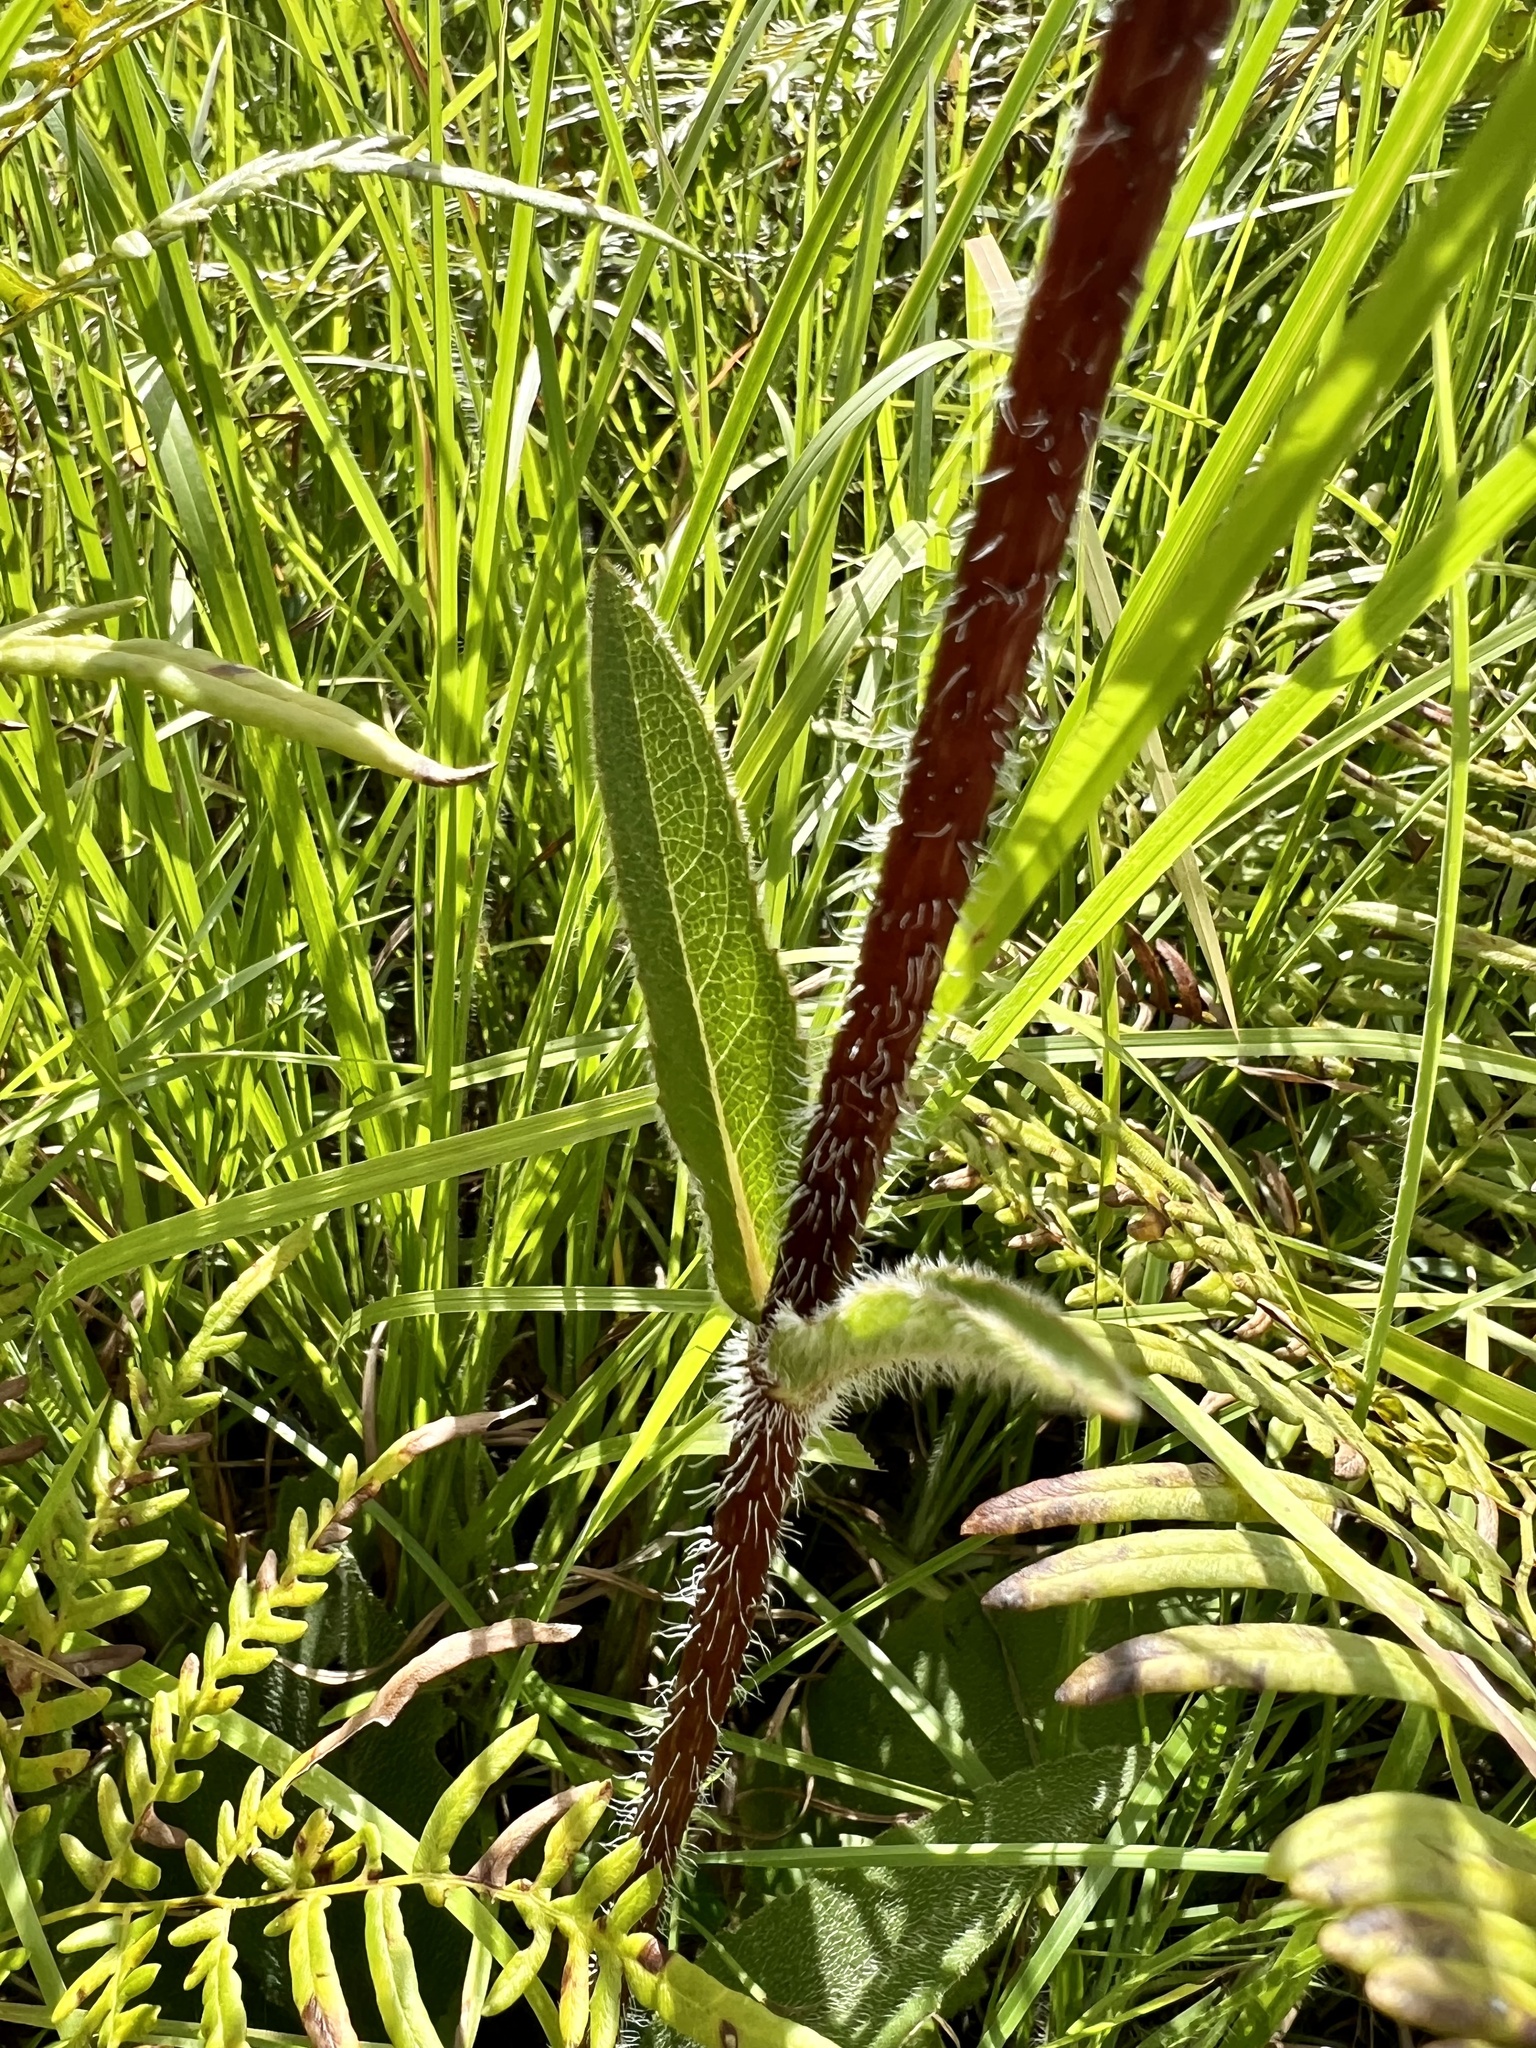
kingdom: Plantae
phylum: Tracheophyta
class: Magnoliopsida
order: Asterales
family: Asteraceae
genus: Silphium
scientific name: Silphium radula
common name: Roughleaf rosinweed
